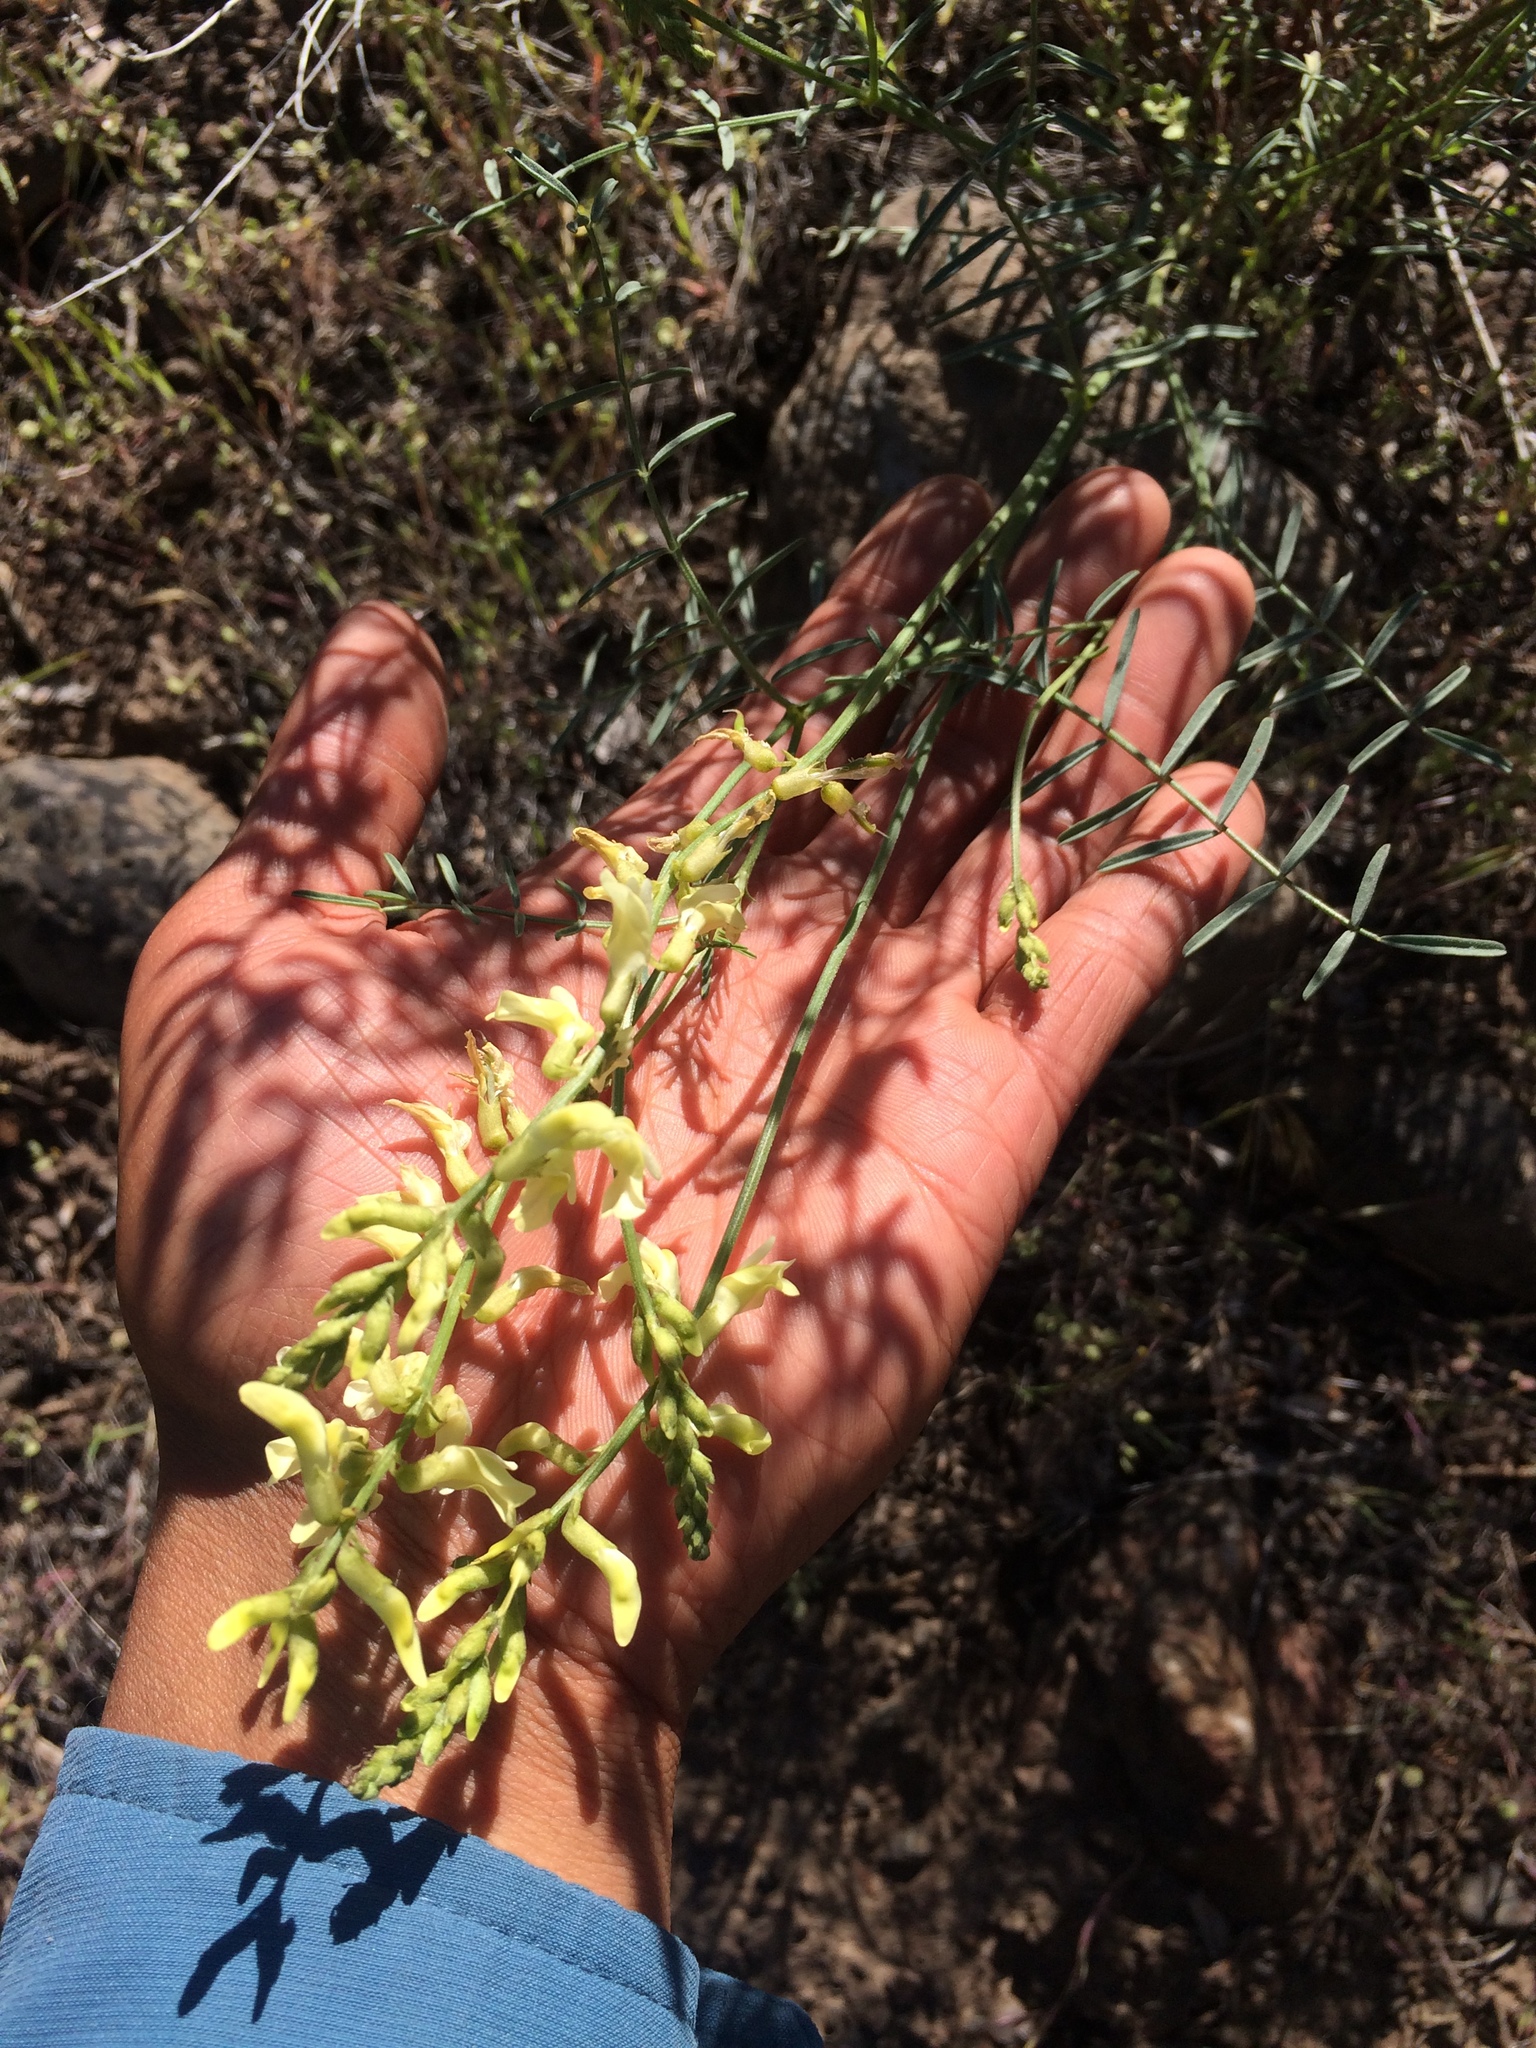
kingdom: Plantae
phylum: Tracheophyta
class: Magnoliopsida
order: Fabales
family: Fabaceae
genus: Astragalus
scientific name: Astragalus filipes
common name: Basalt milk-vetch
